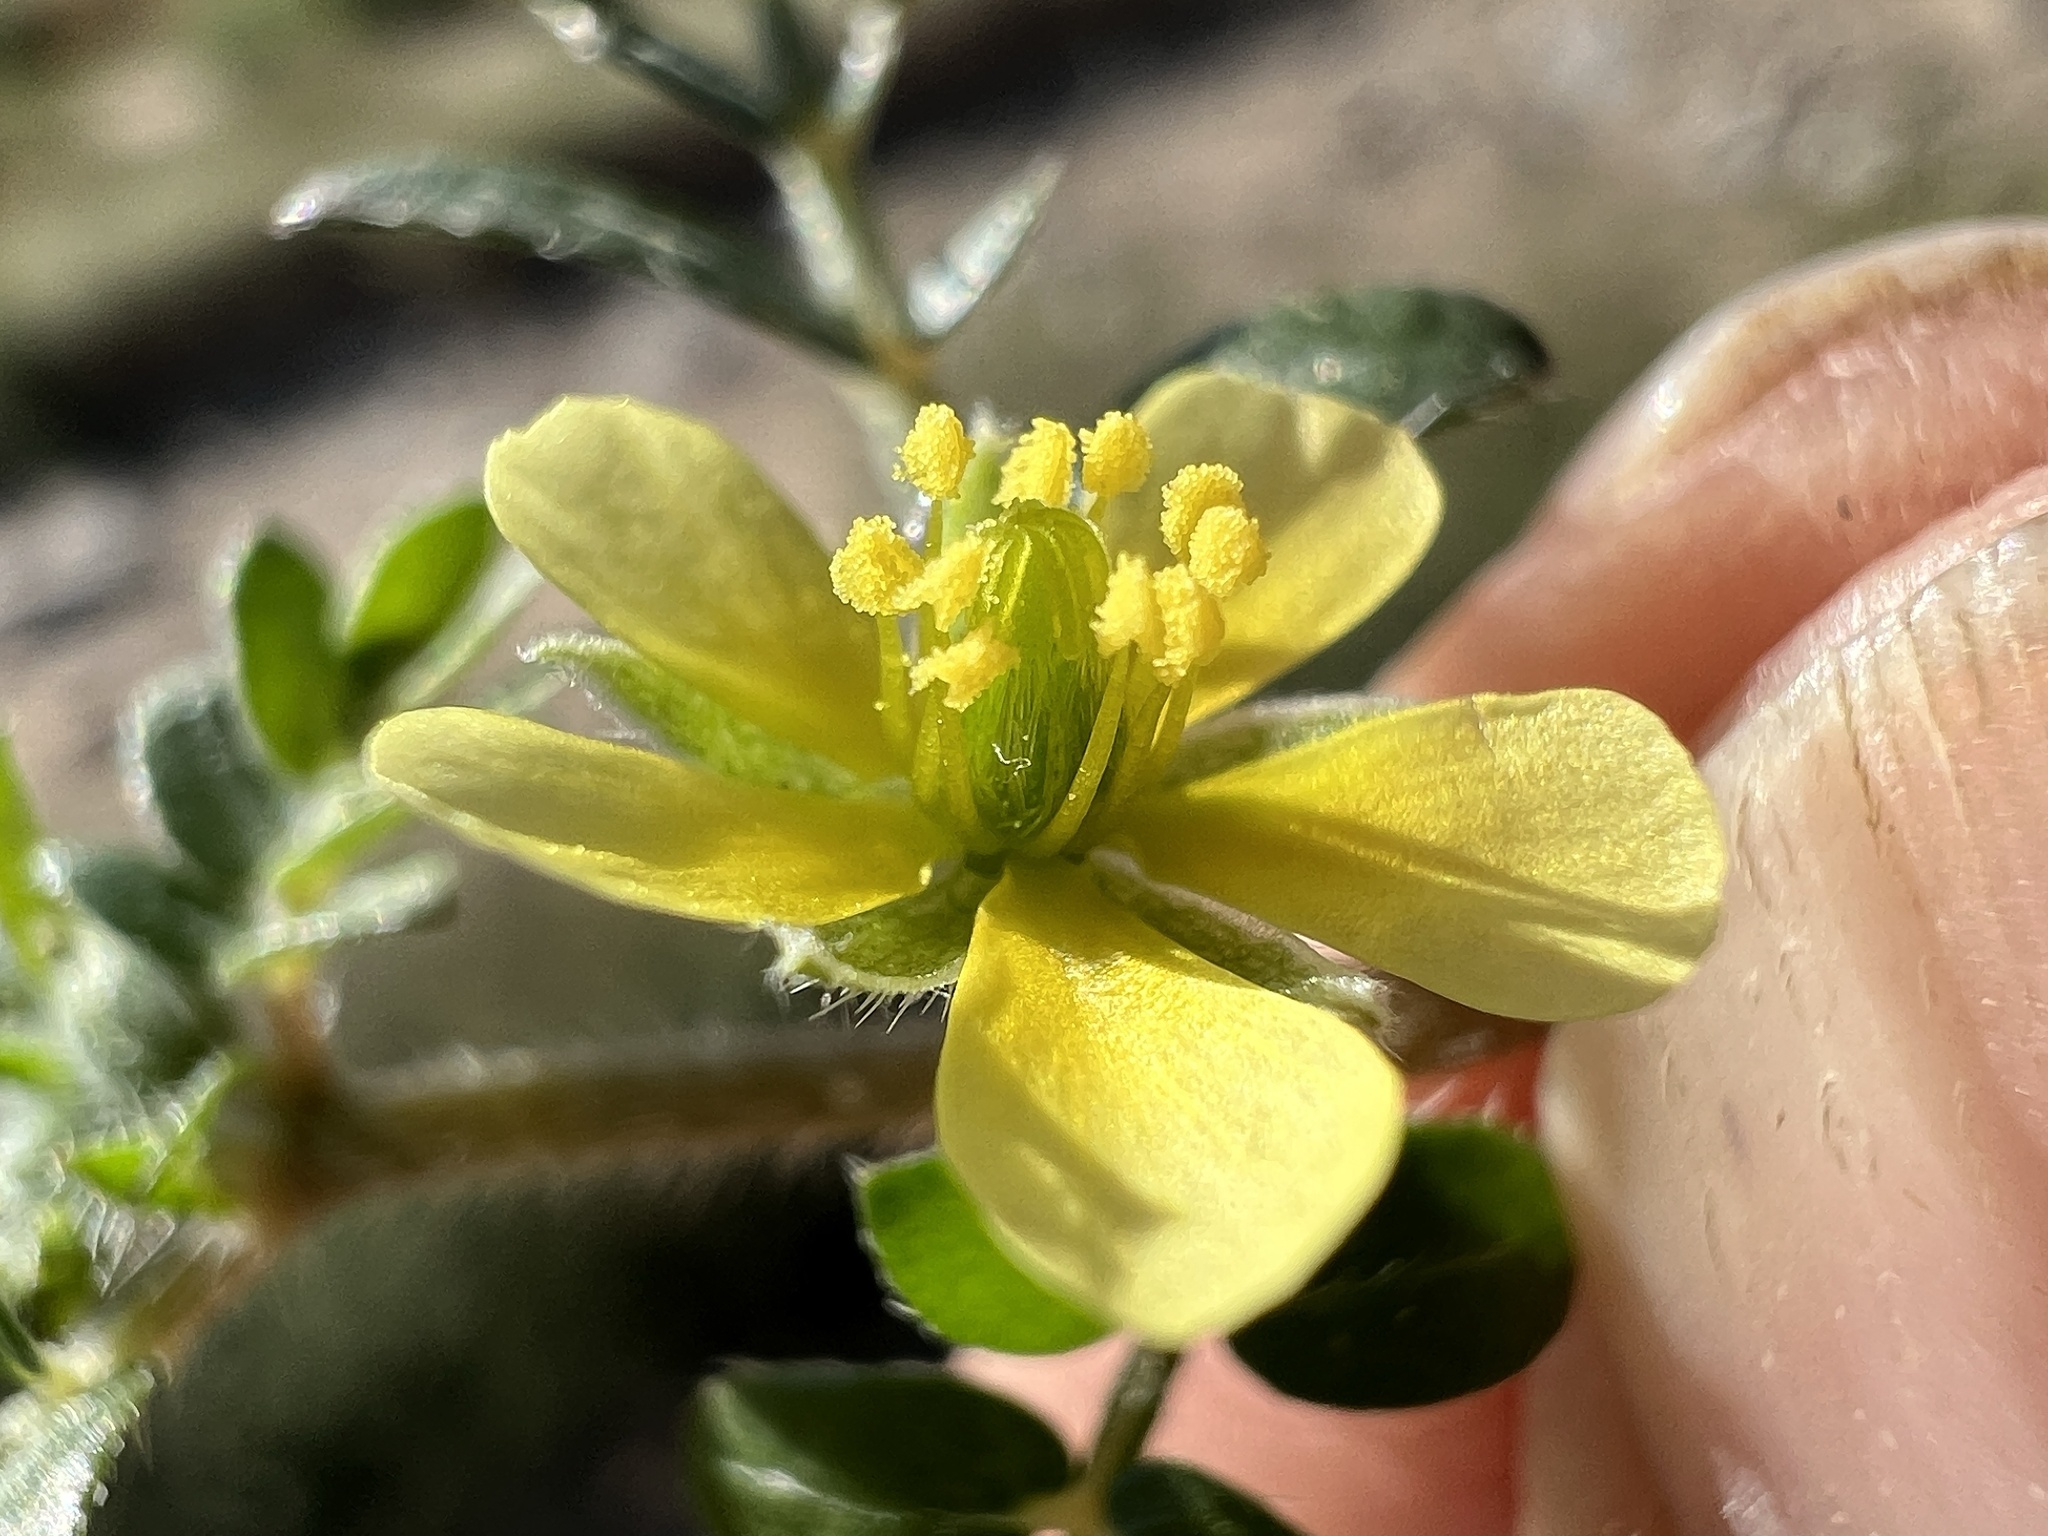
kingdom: Plantae
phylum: Tracheophyta
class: Magnoliopsida
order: Zygophyllales
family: Zygophyllaceae
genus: Tribulus
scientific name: Tribulus terrestris
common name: Puncturevine
